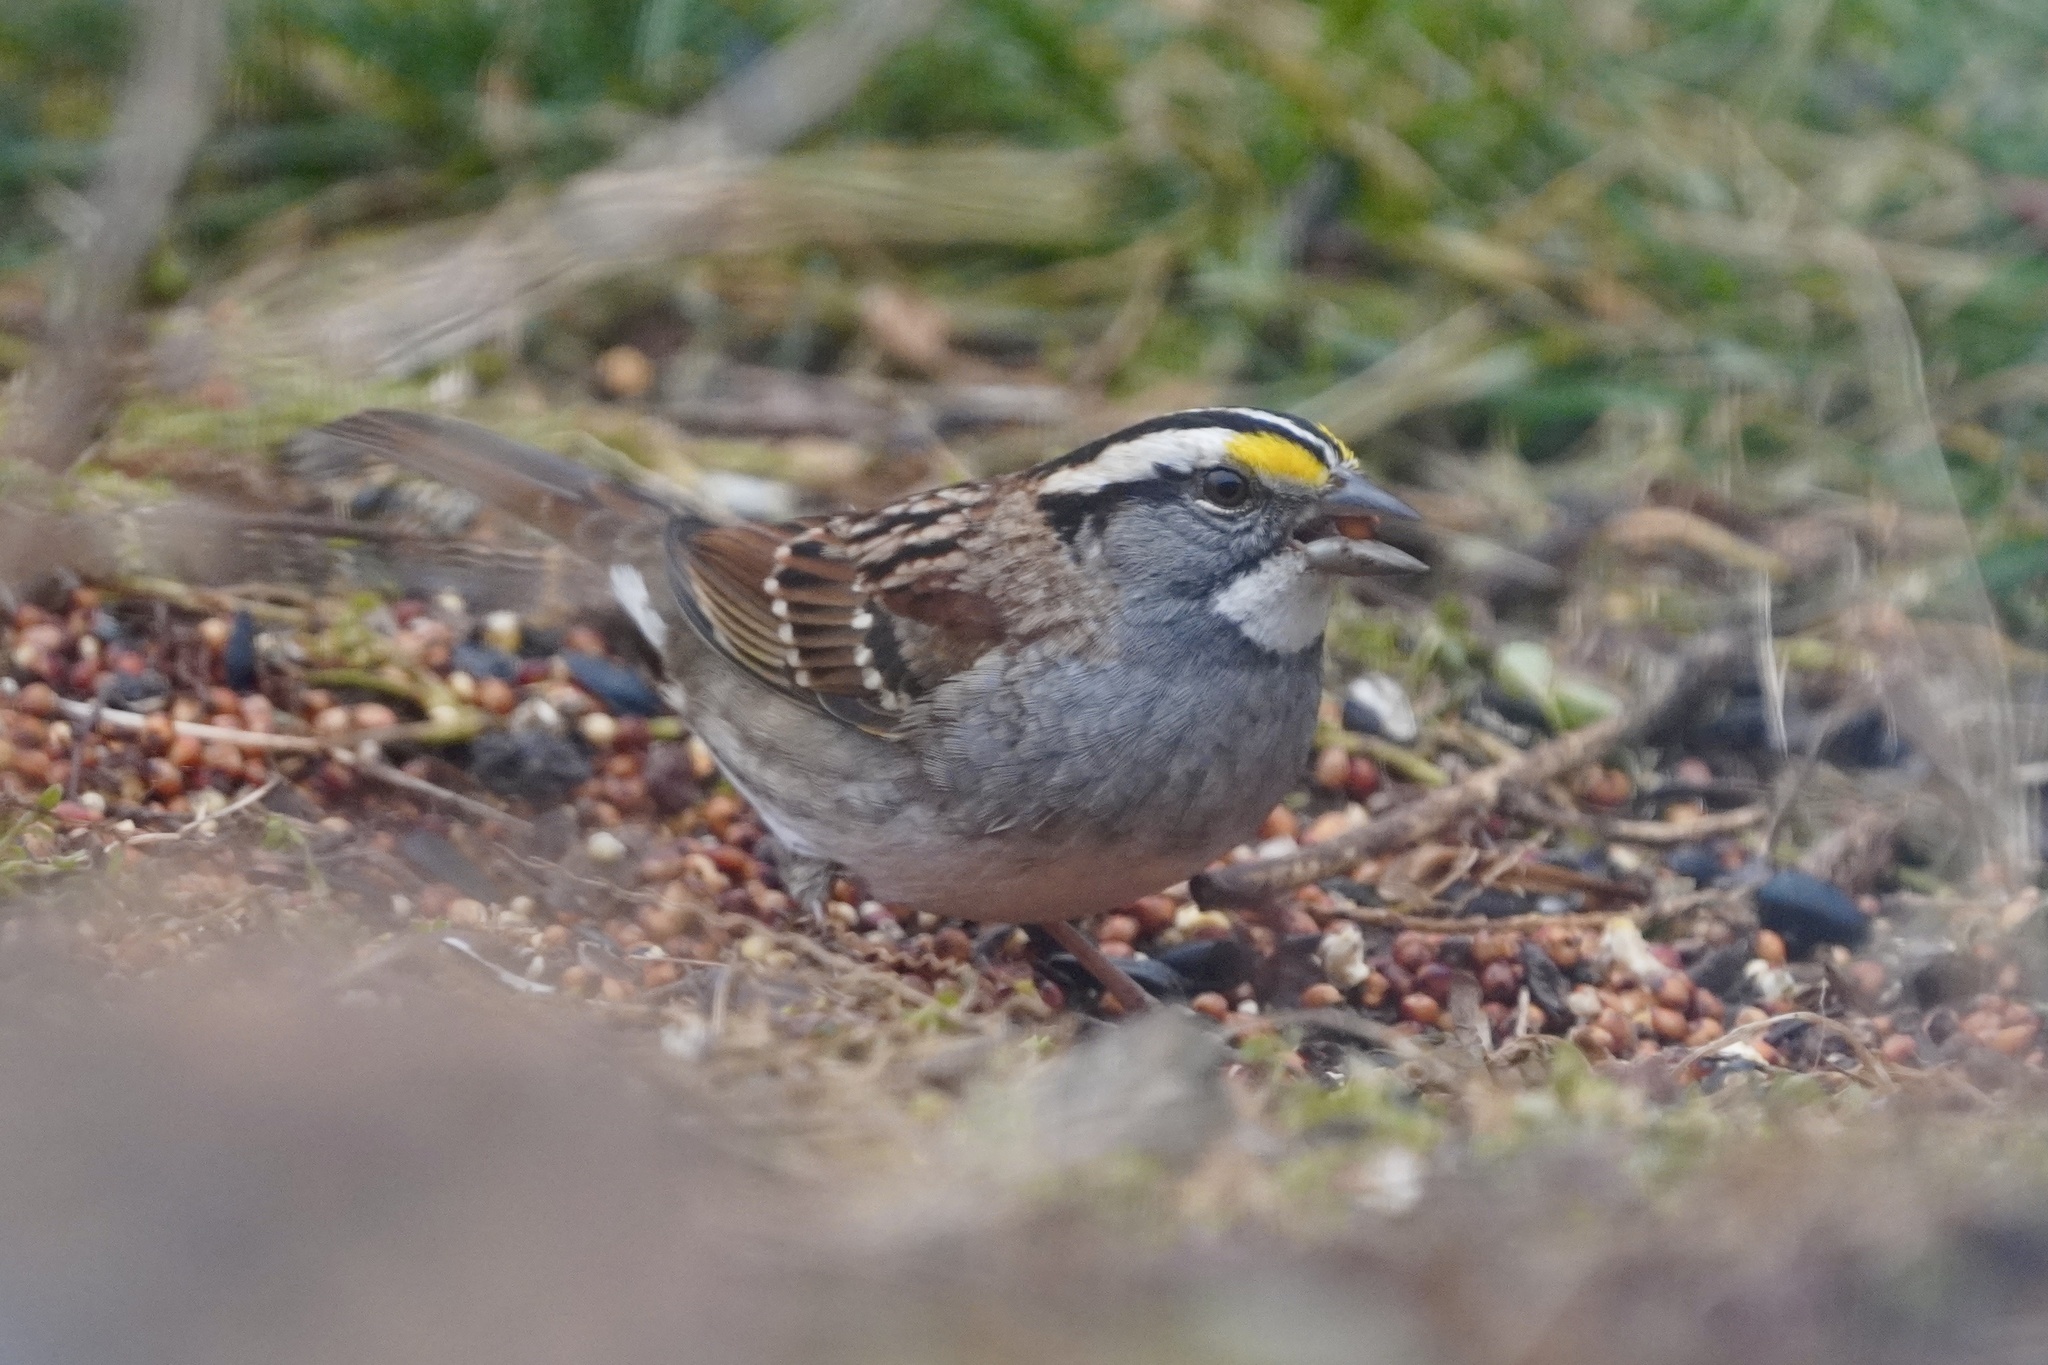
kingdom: Animalia
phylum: Chordata
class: Aves
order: Passeriformes
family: Passerellidae
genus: Zonotrichia
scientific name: Zonotrichia albicollis
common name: White-throated sparrow
